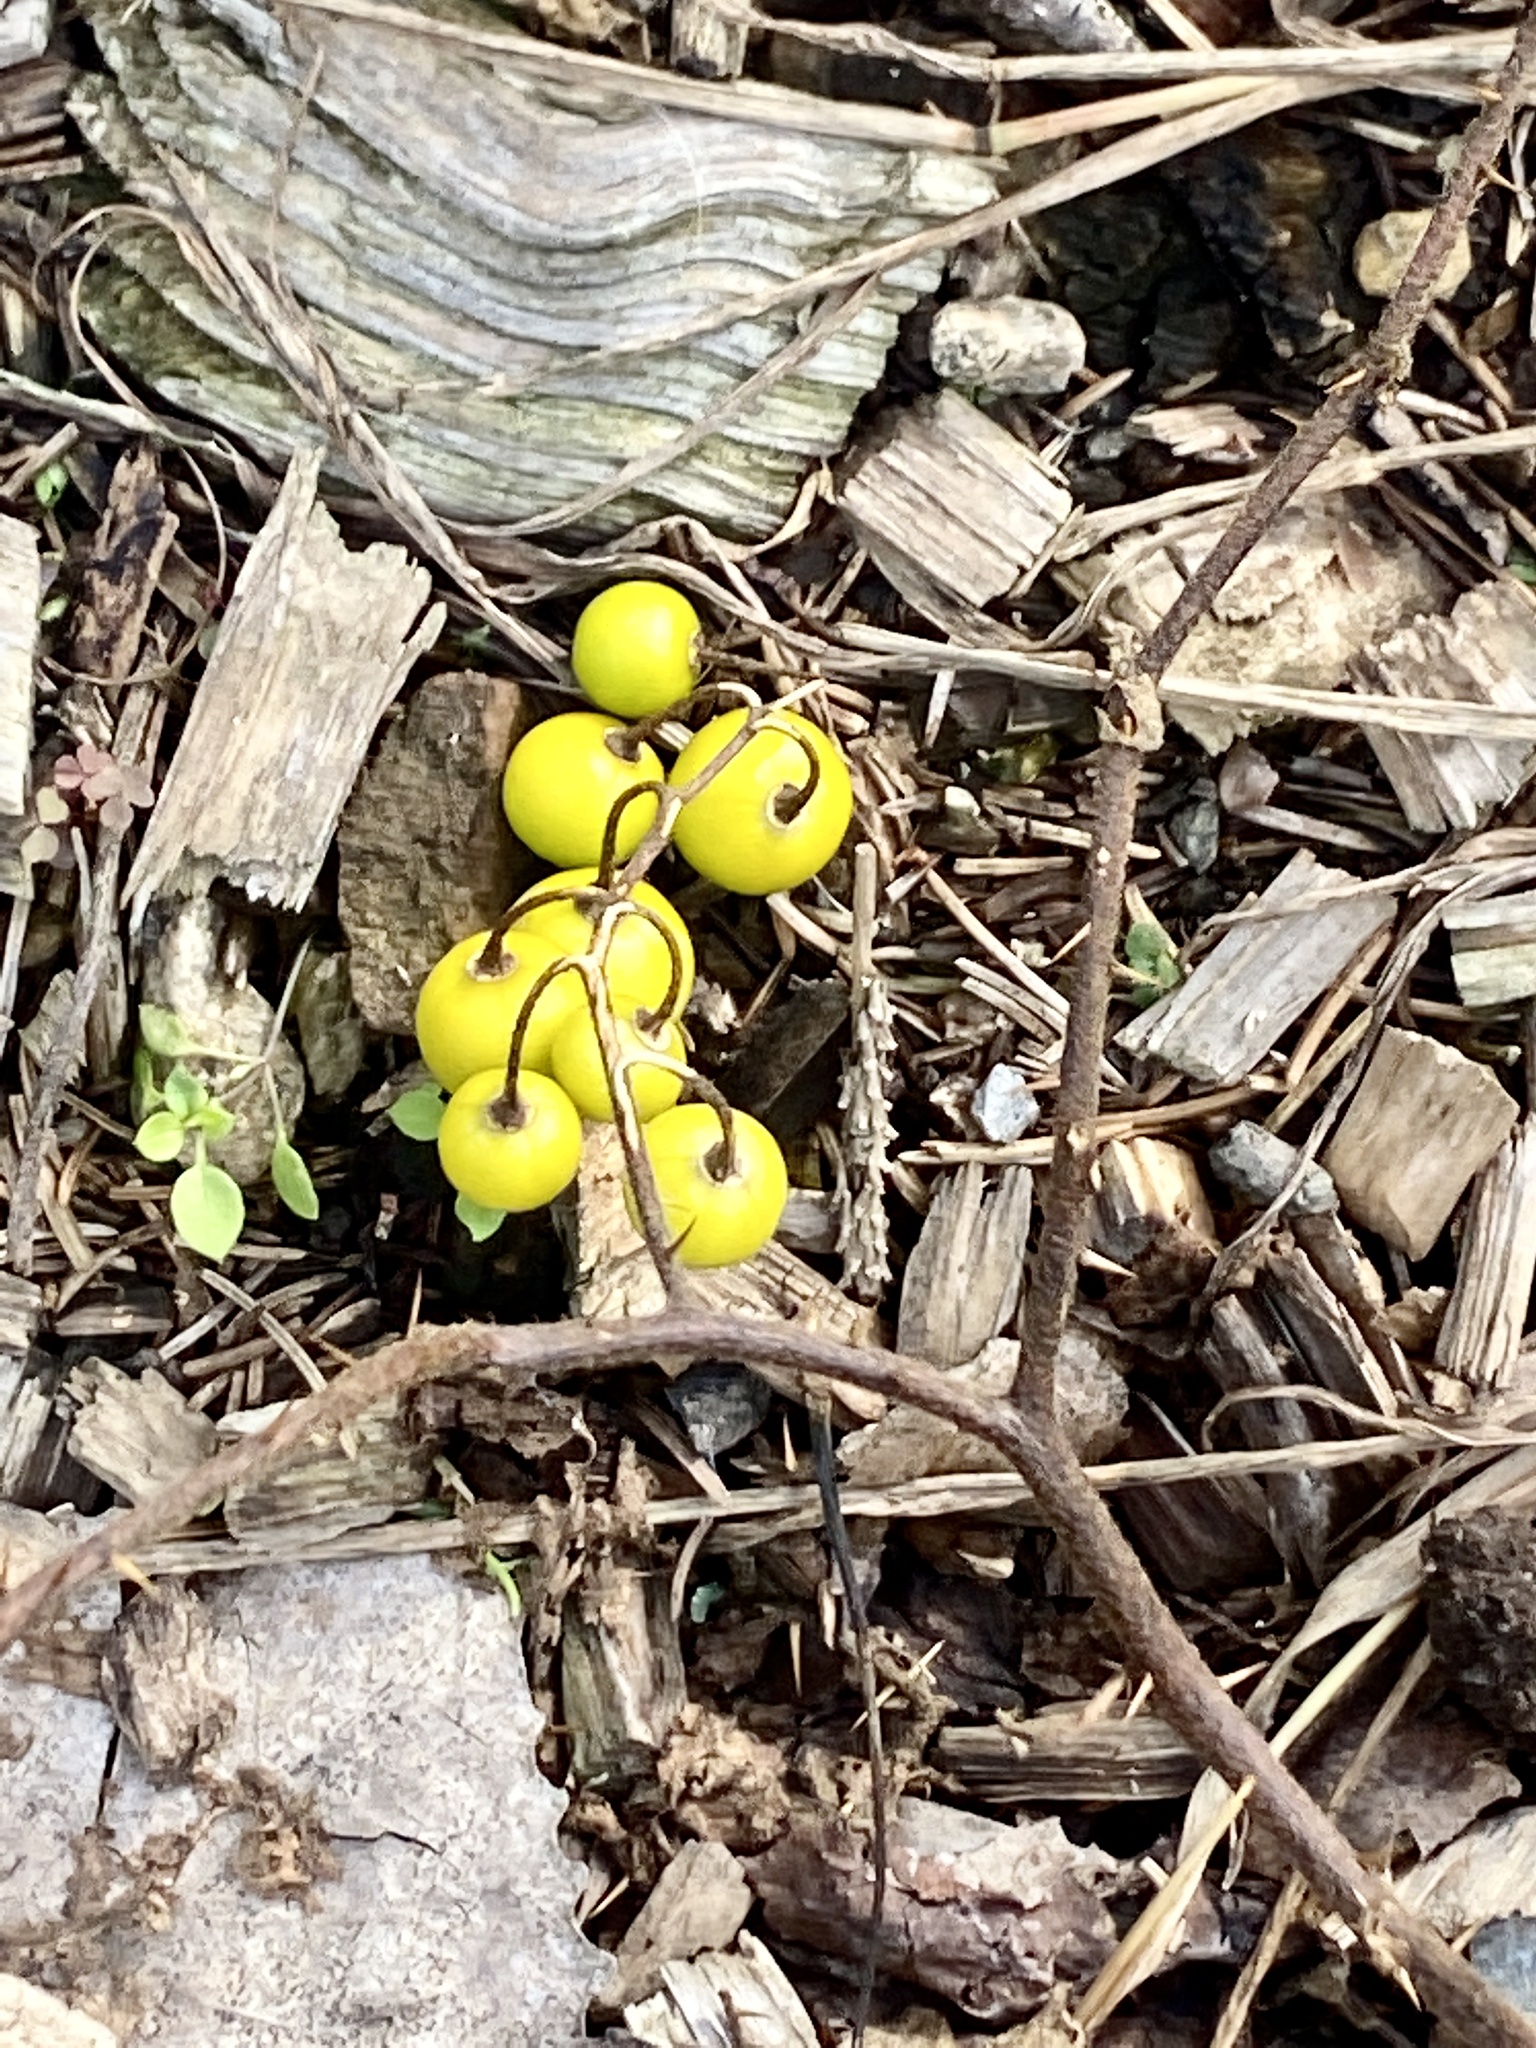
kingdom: Plantae
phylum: Tracheophyta
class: Magnoliopsida
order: Solanales
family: Solanaceae
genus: Solanum
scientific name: Solanum carolinense
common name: Horse-nettle
